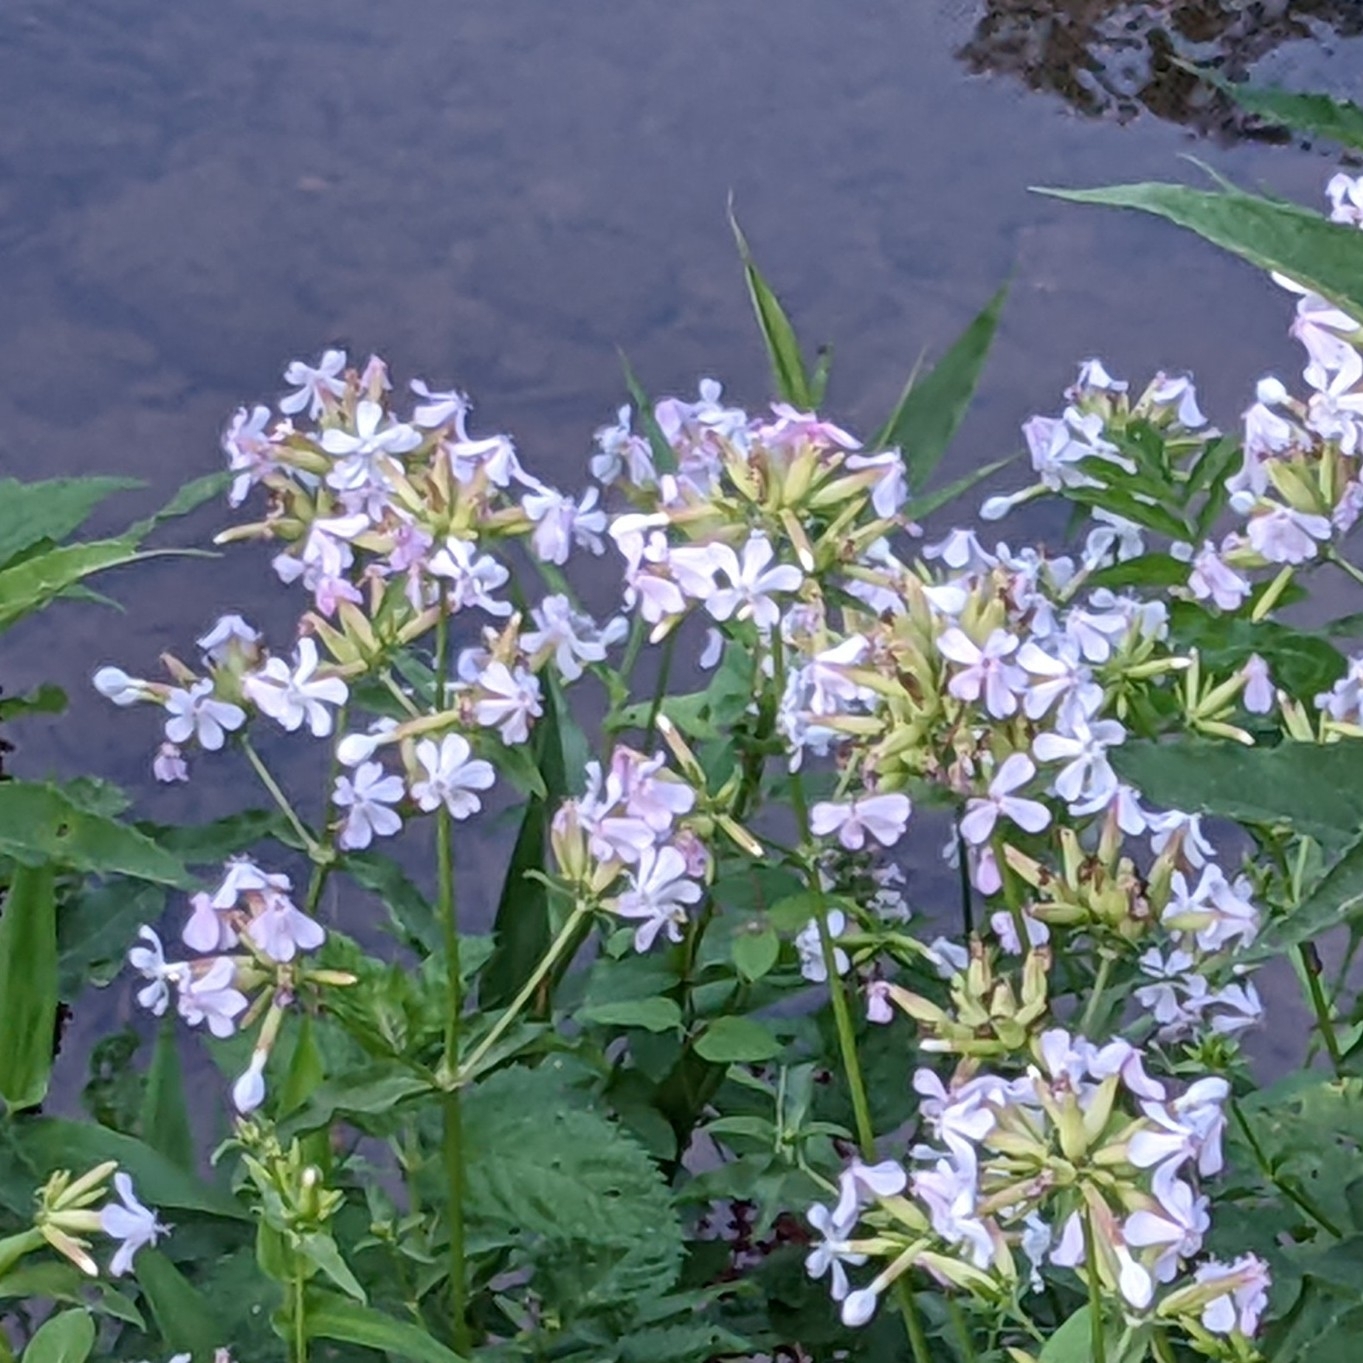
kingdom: Plantae
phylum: Tracheophyta
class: Magnoliopsida
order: Caryophyllales
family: Caryophyllaceae
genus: Saponaria
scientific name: Saponaria officinalis
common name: Soapwort
